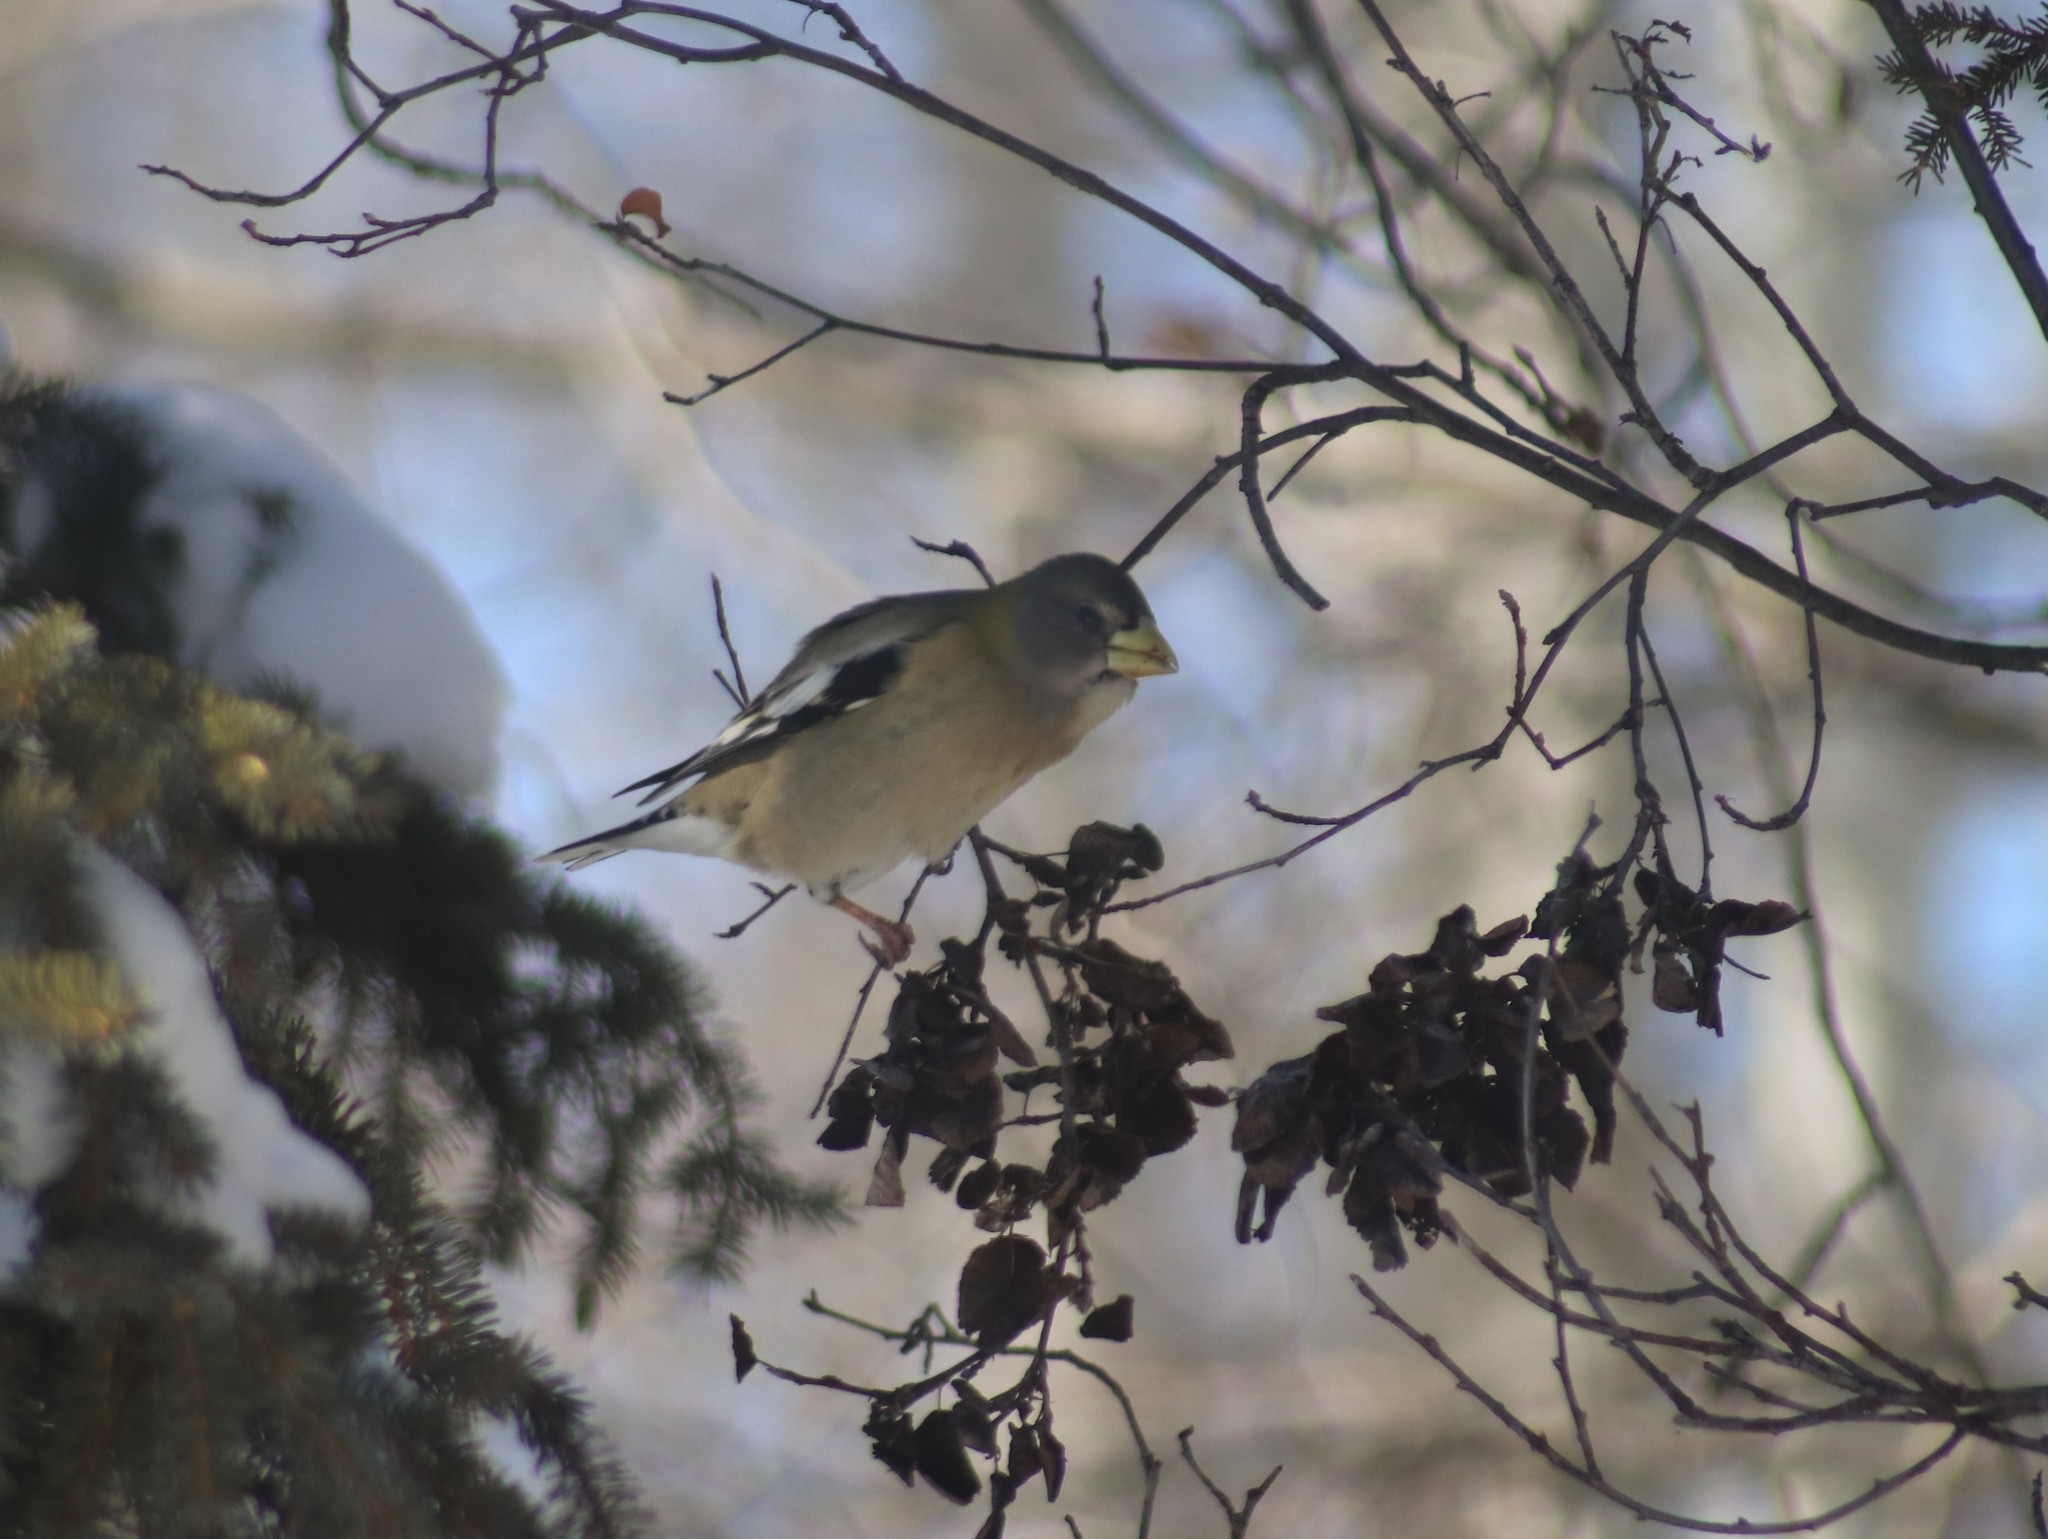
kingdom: Animalia
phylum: Chordata
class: Aves
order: Passeriformes
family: Fringillidae
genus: Hesperiphona
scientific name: Hesperiphona vespertina
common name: Evening grosbeak
